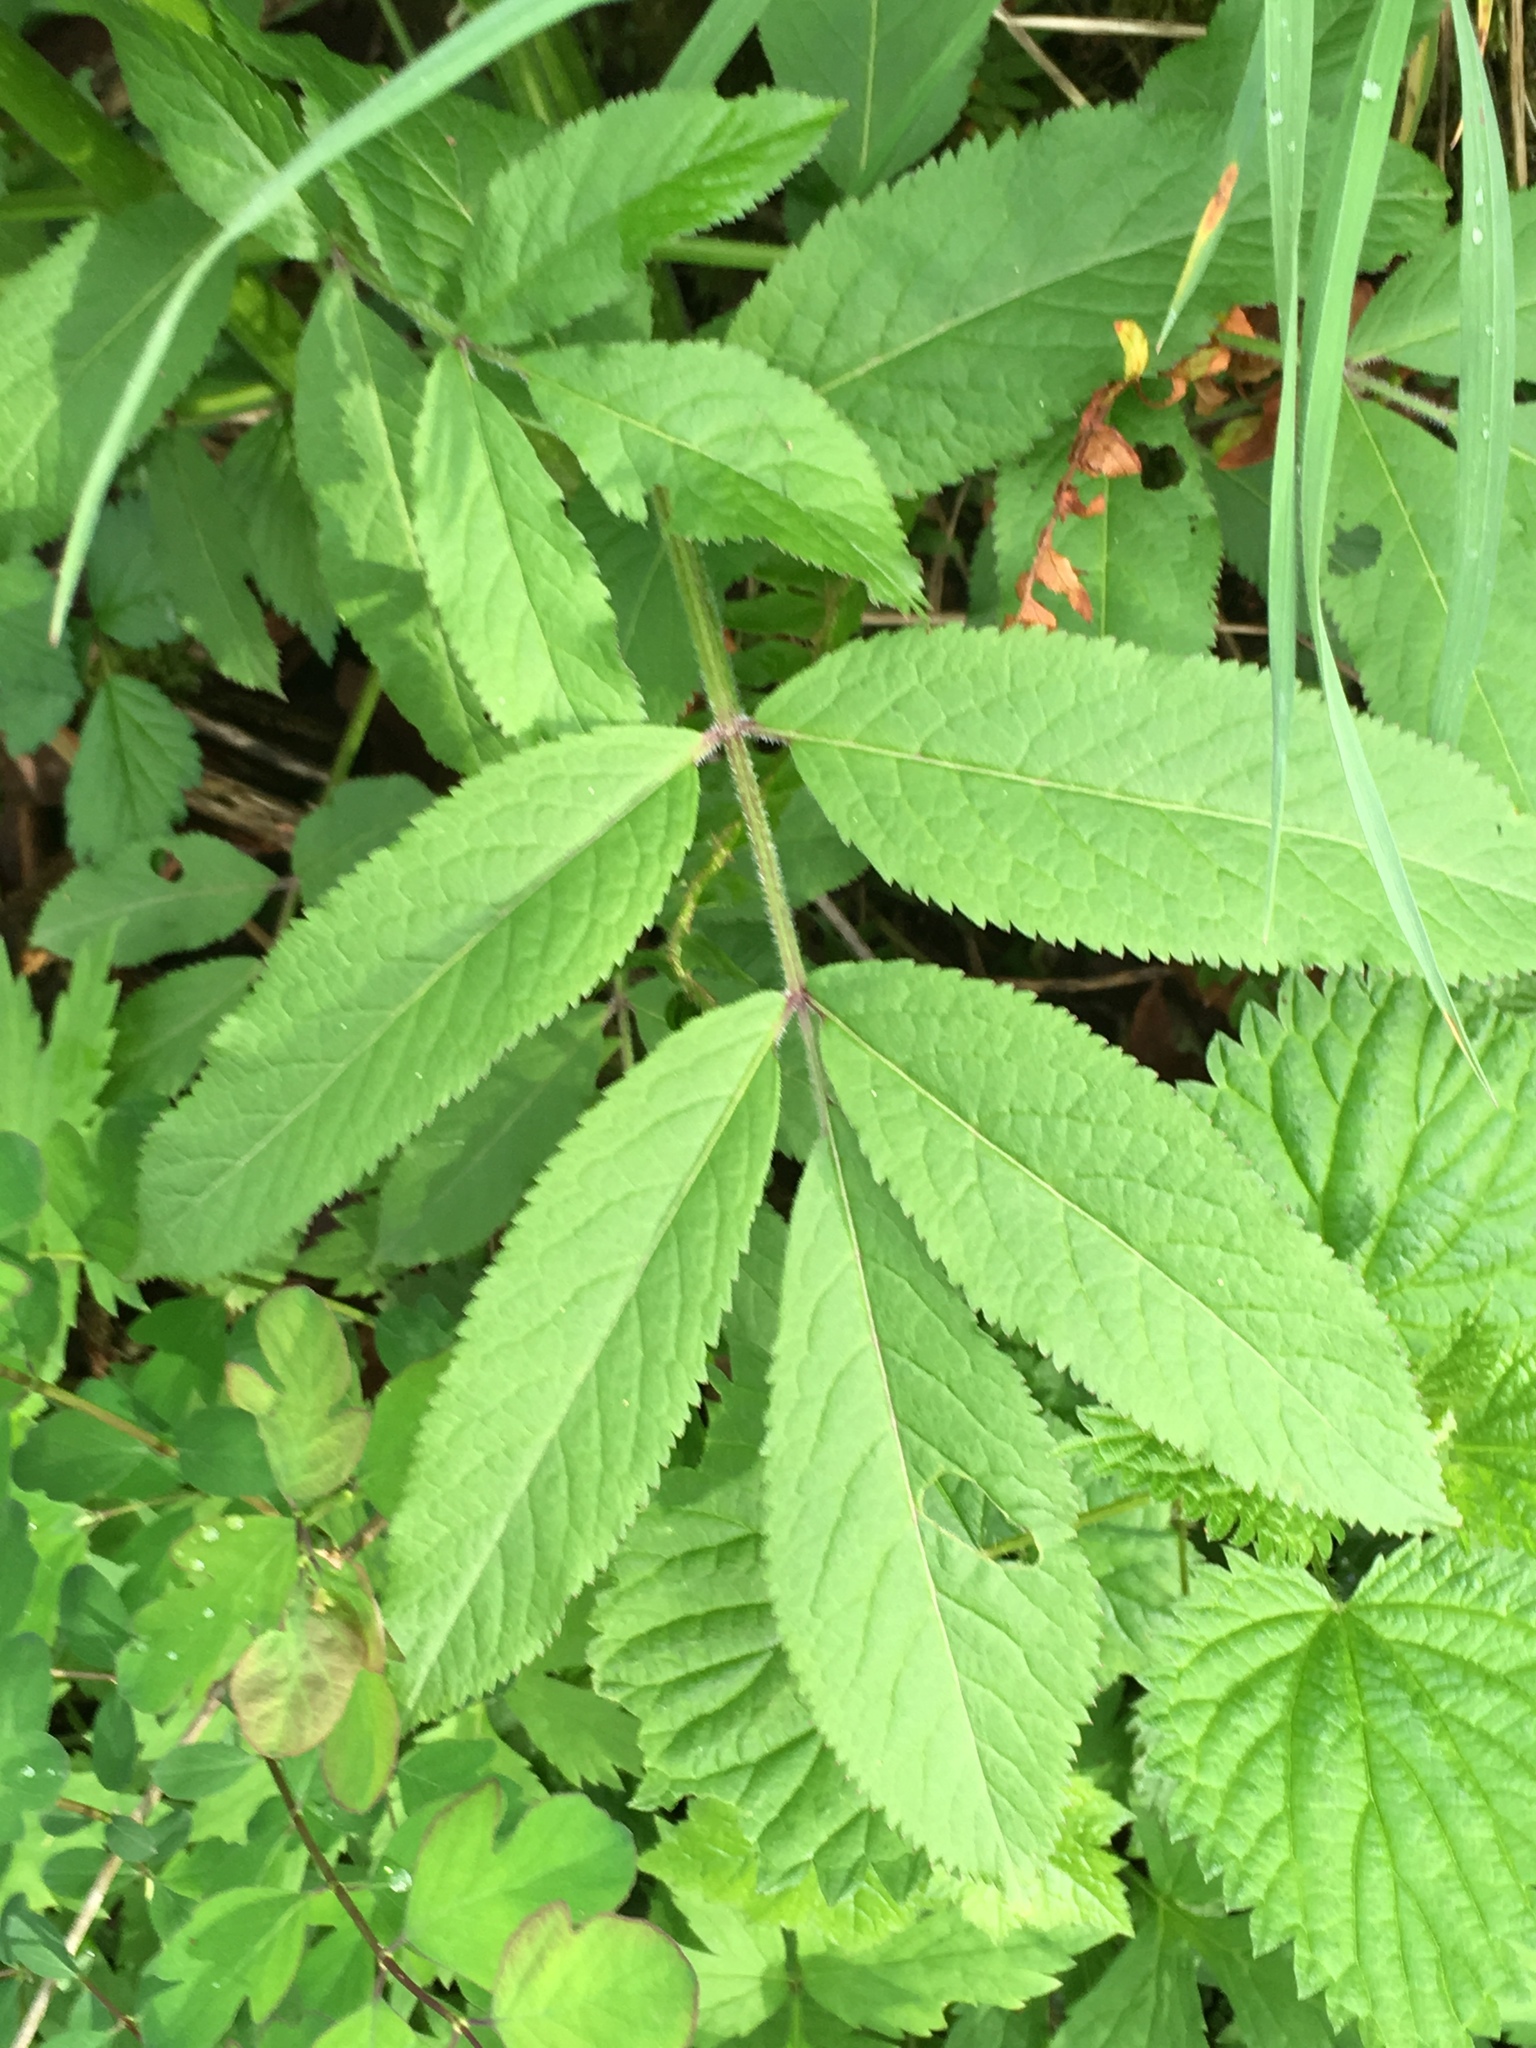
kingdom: Plantae
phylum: Tracheophyta
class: Magnoliopsida
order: Dipsacales
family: Viburnaceae
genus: Sambucus
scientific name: Sambucus racemosa
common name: Red-berried elder
